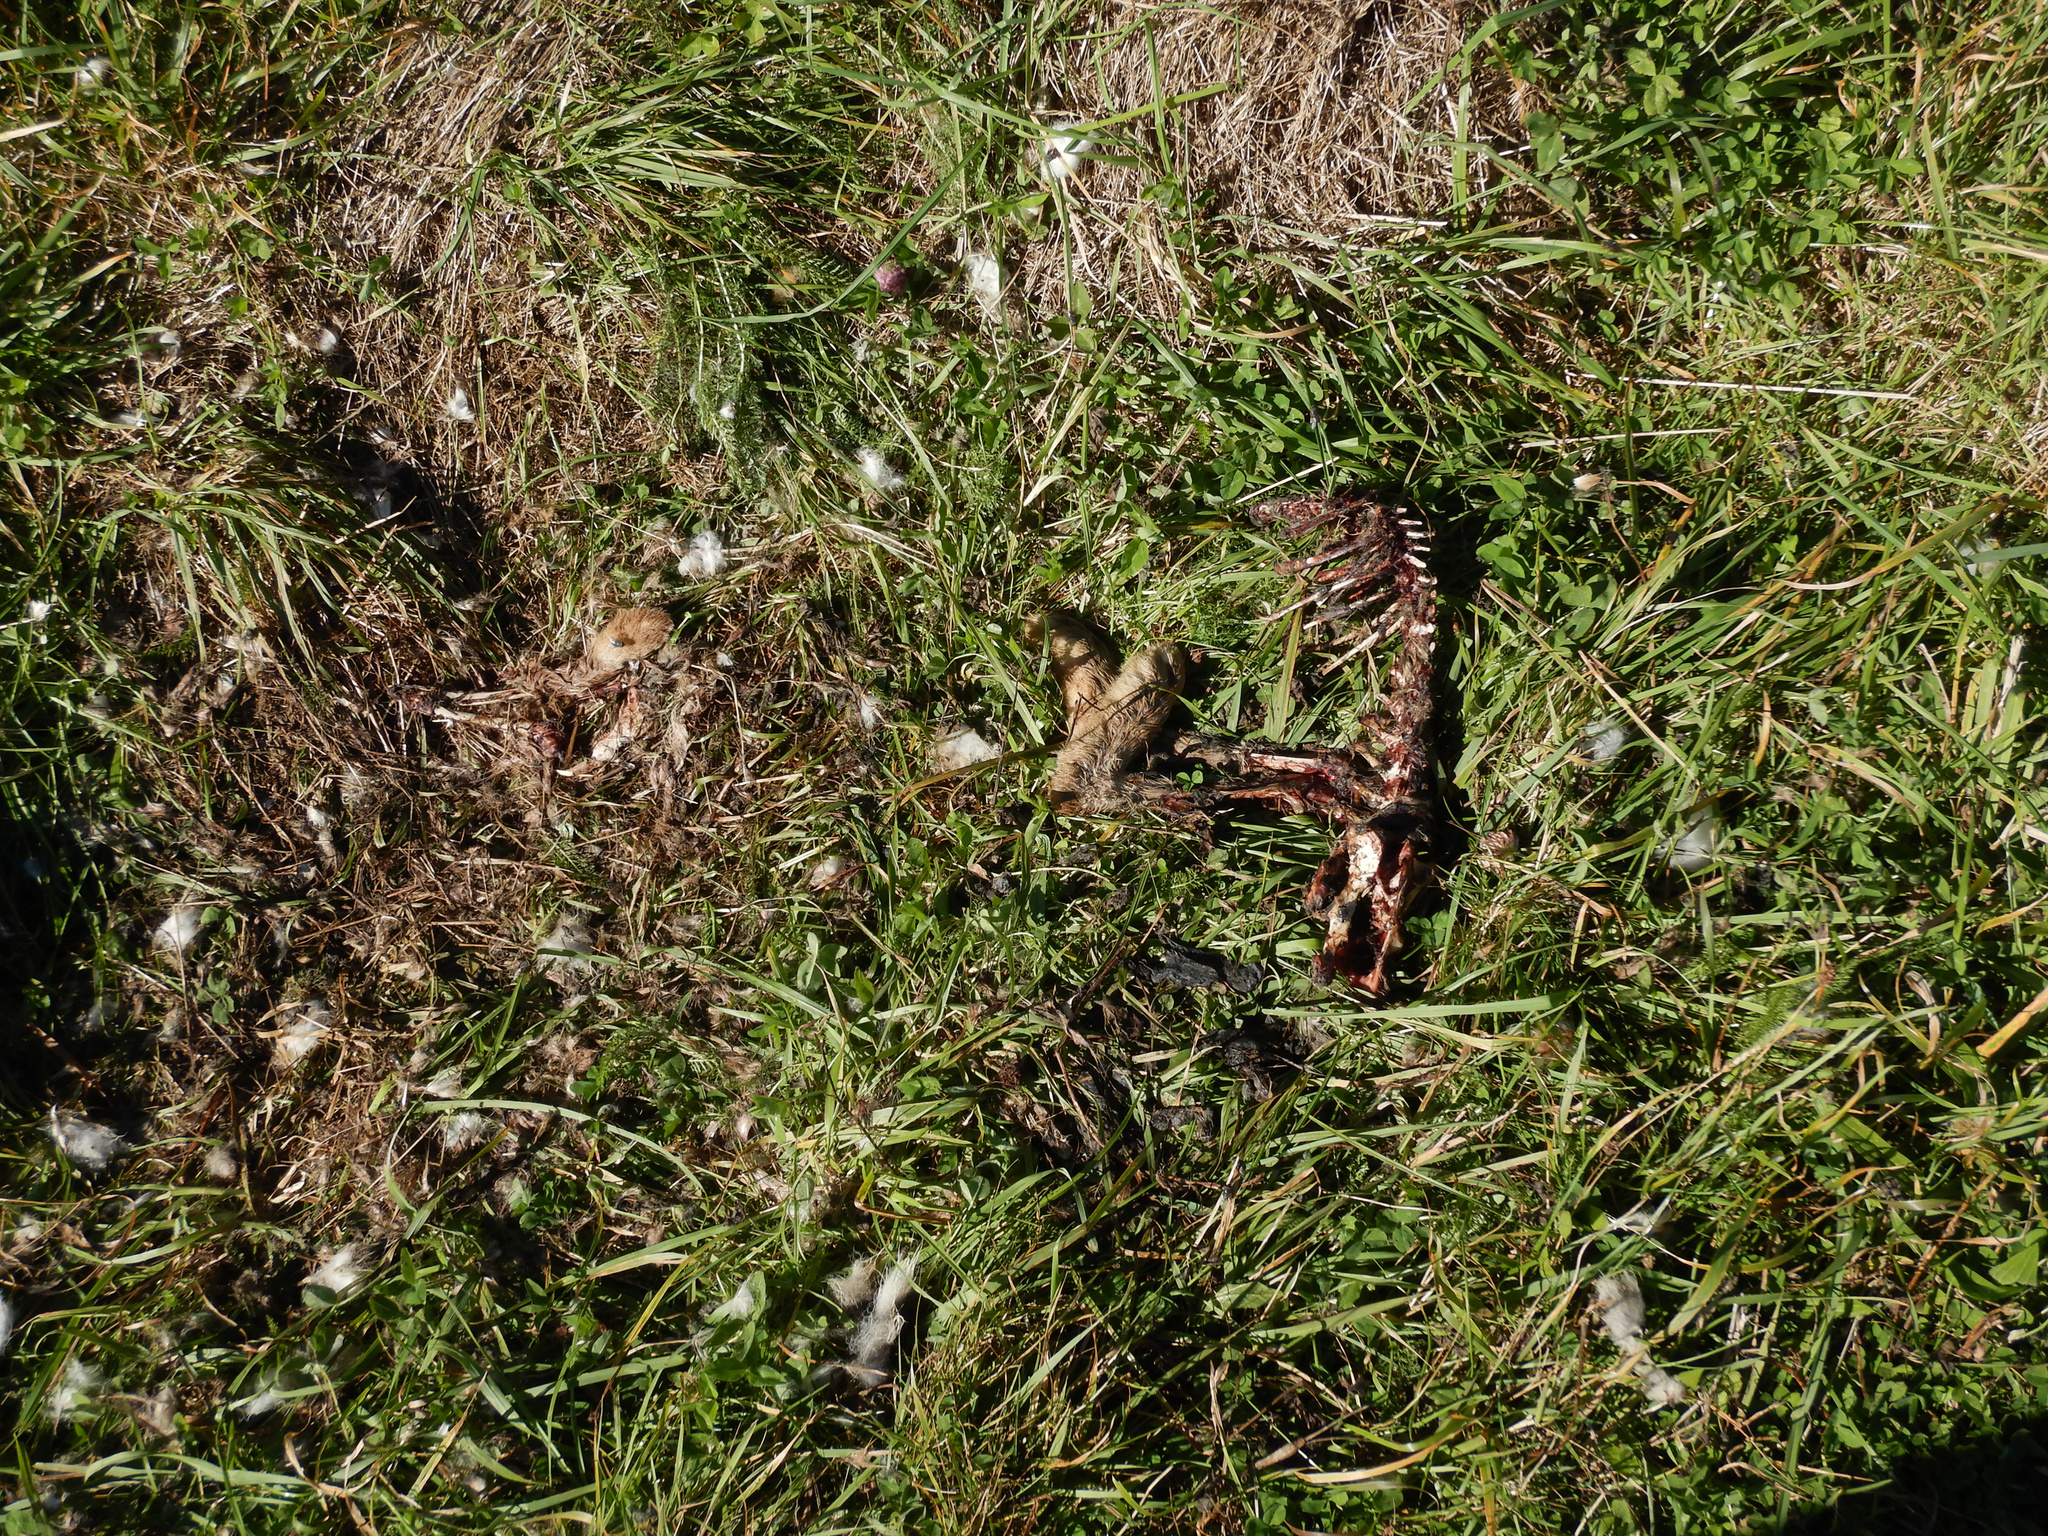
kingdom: Animalia
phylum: Chordata
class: Mammalia
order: Lagomorpha
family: Leporidae
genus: Lepus
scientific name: Lepus europaeus
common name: European hare
